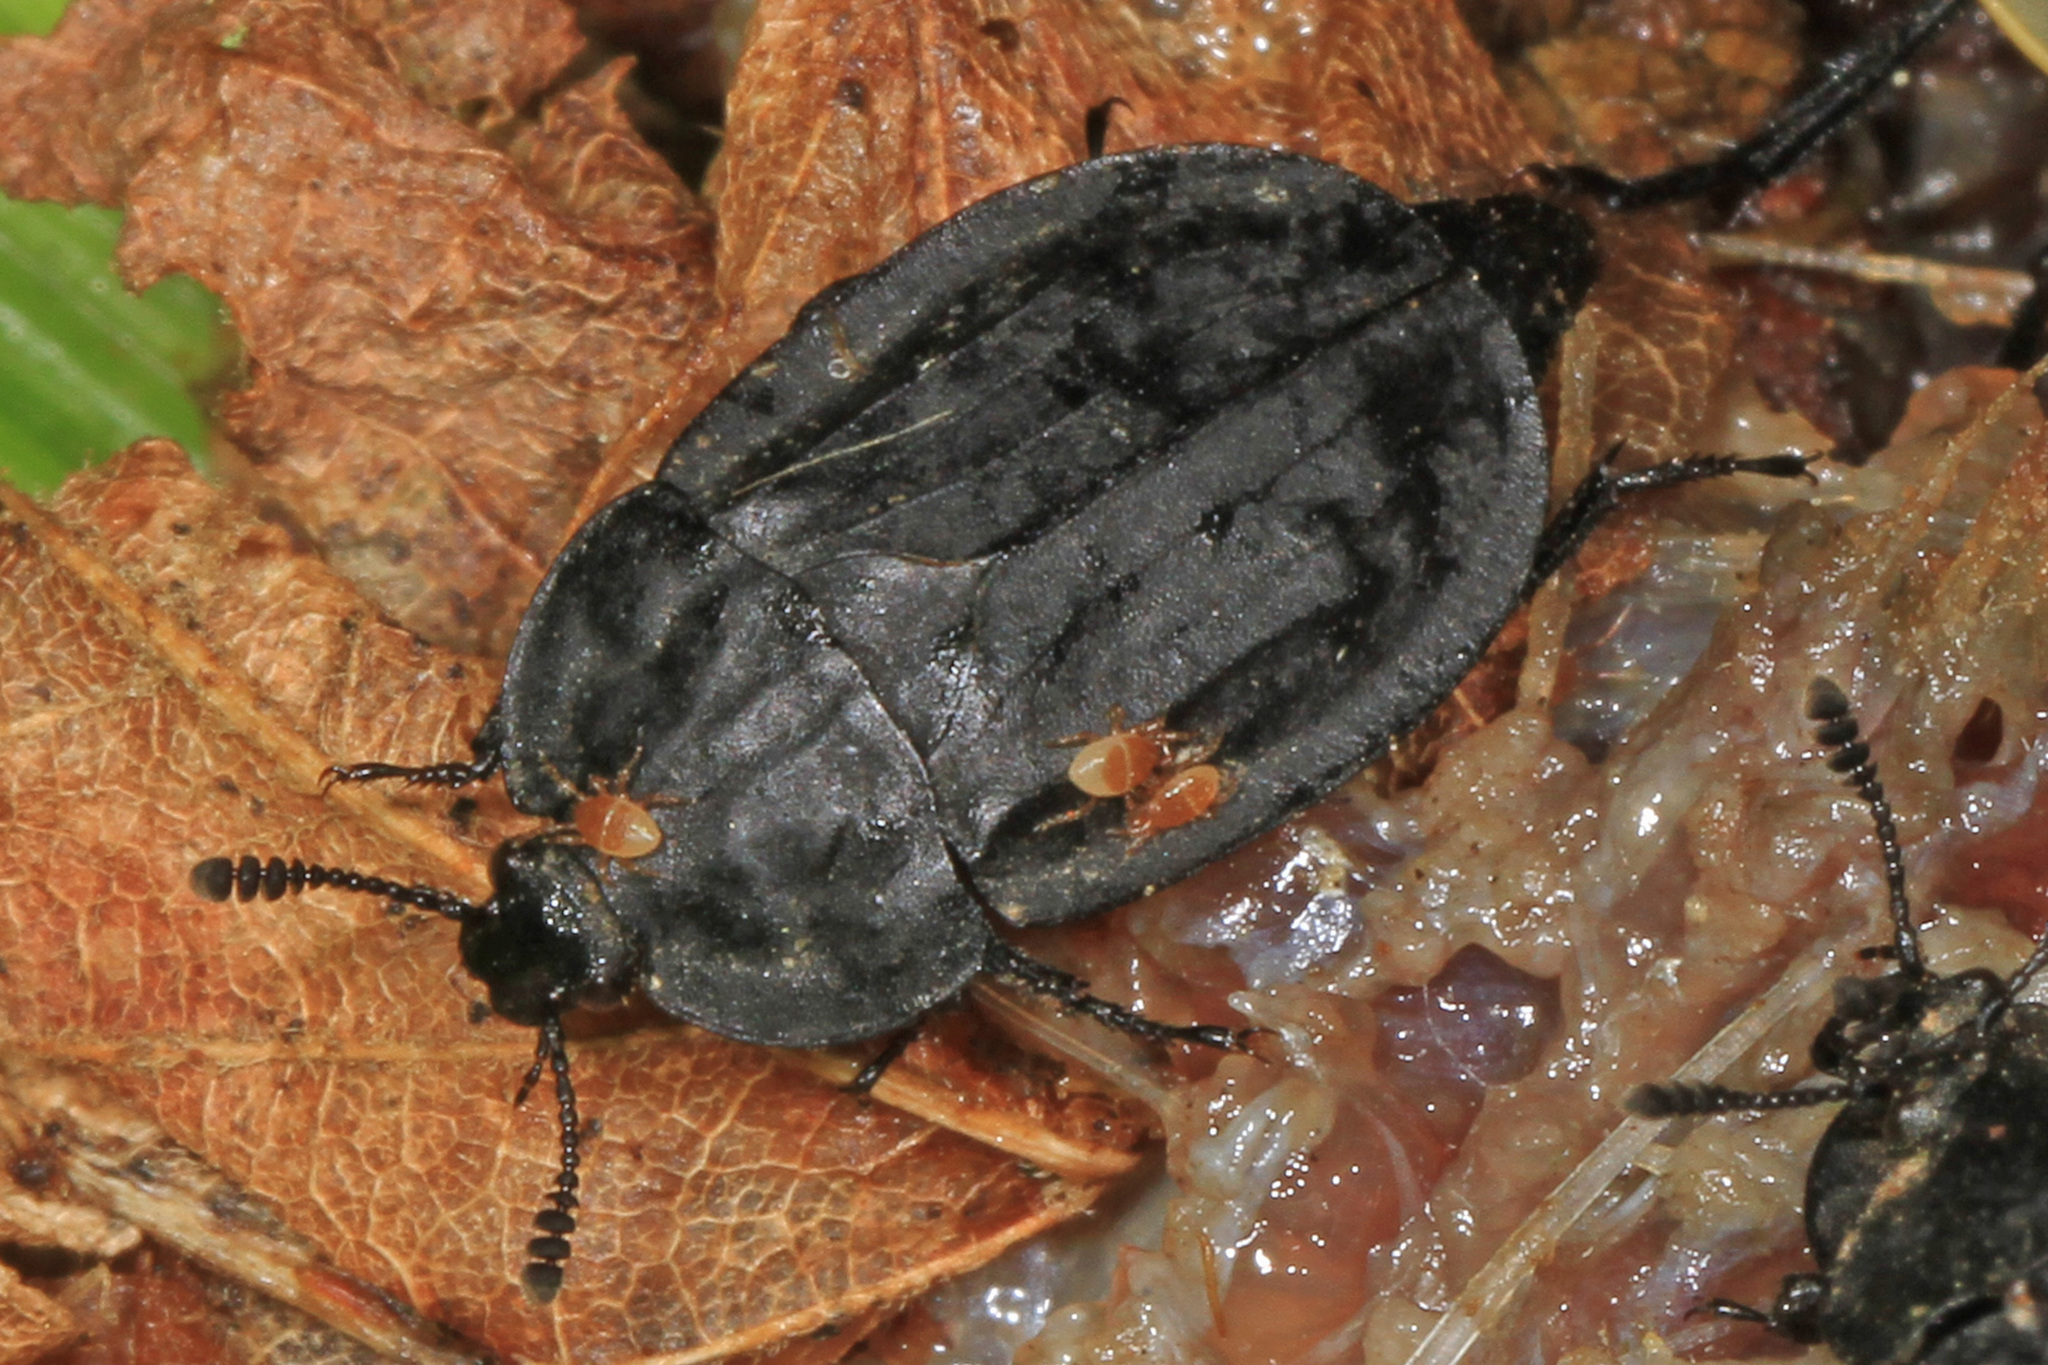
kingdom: Animalia
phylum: Arthropoda
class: Insecta
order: Coleoptera
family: Staphylinidae
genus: Oiceoptoma
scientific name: Oiceoptoma inaequale
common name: Ridged carrion beetle
